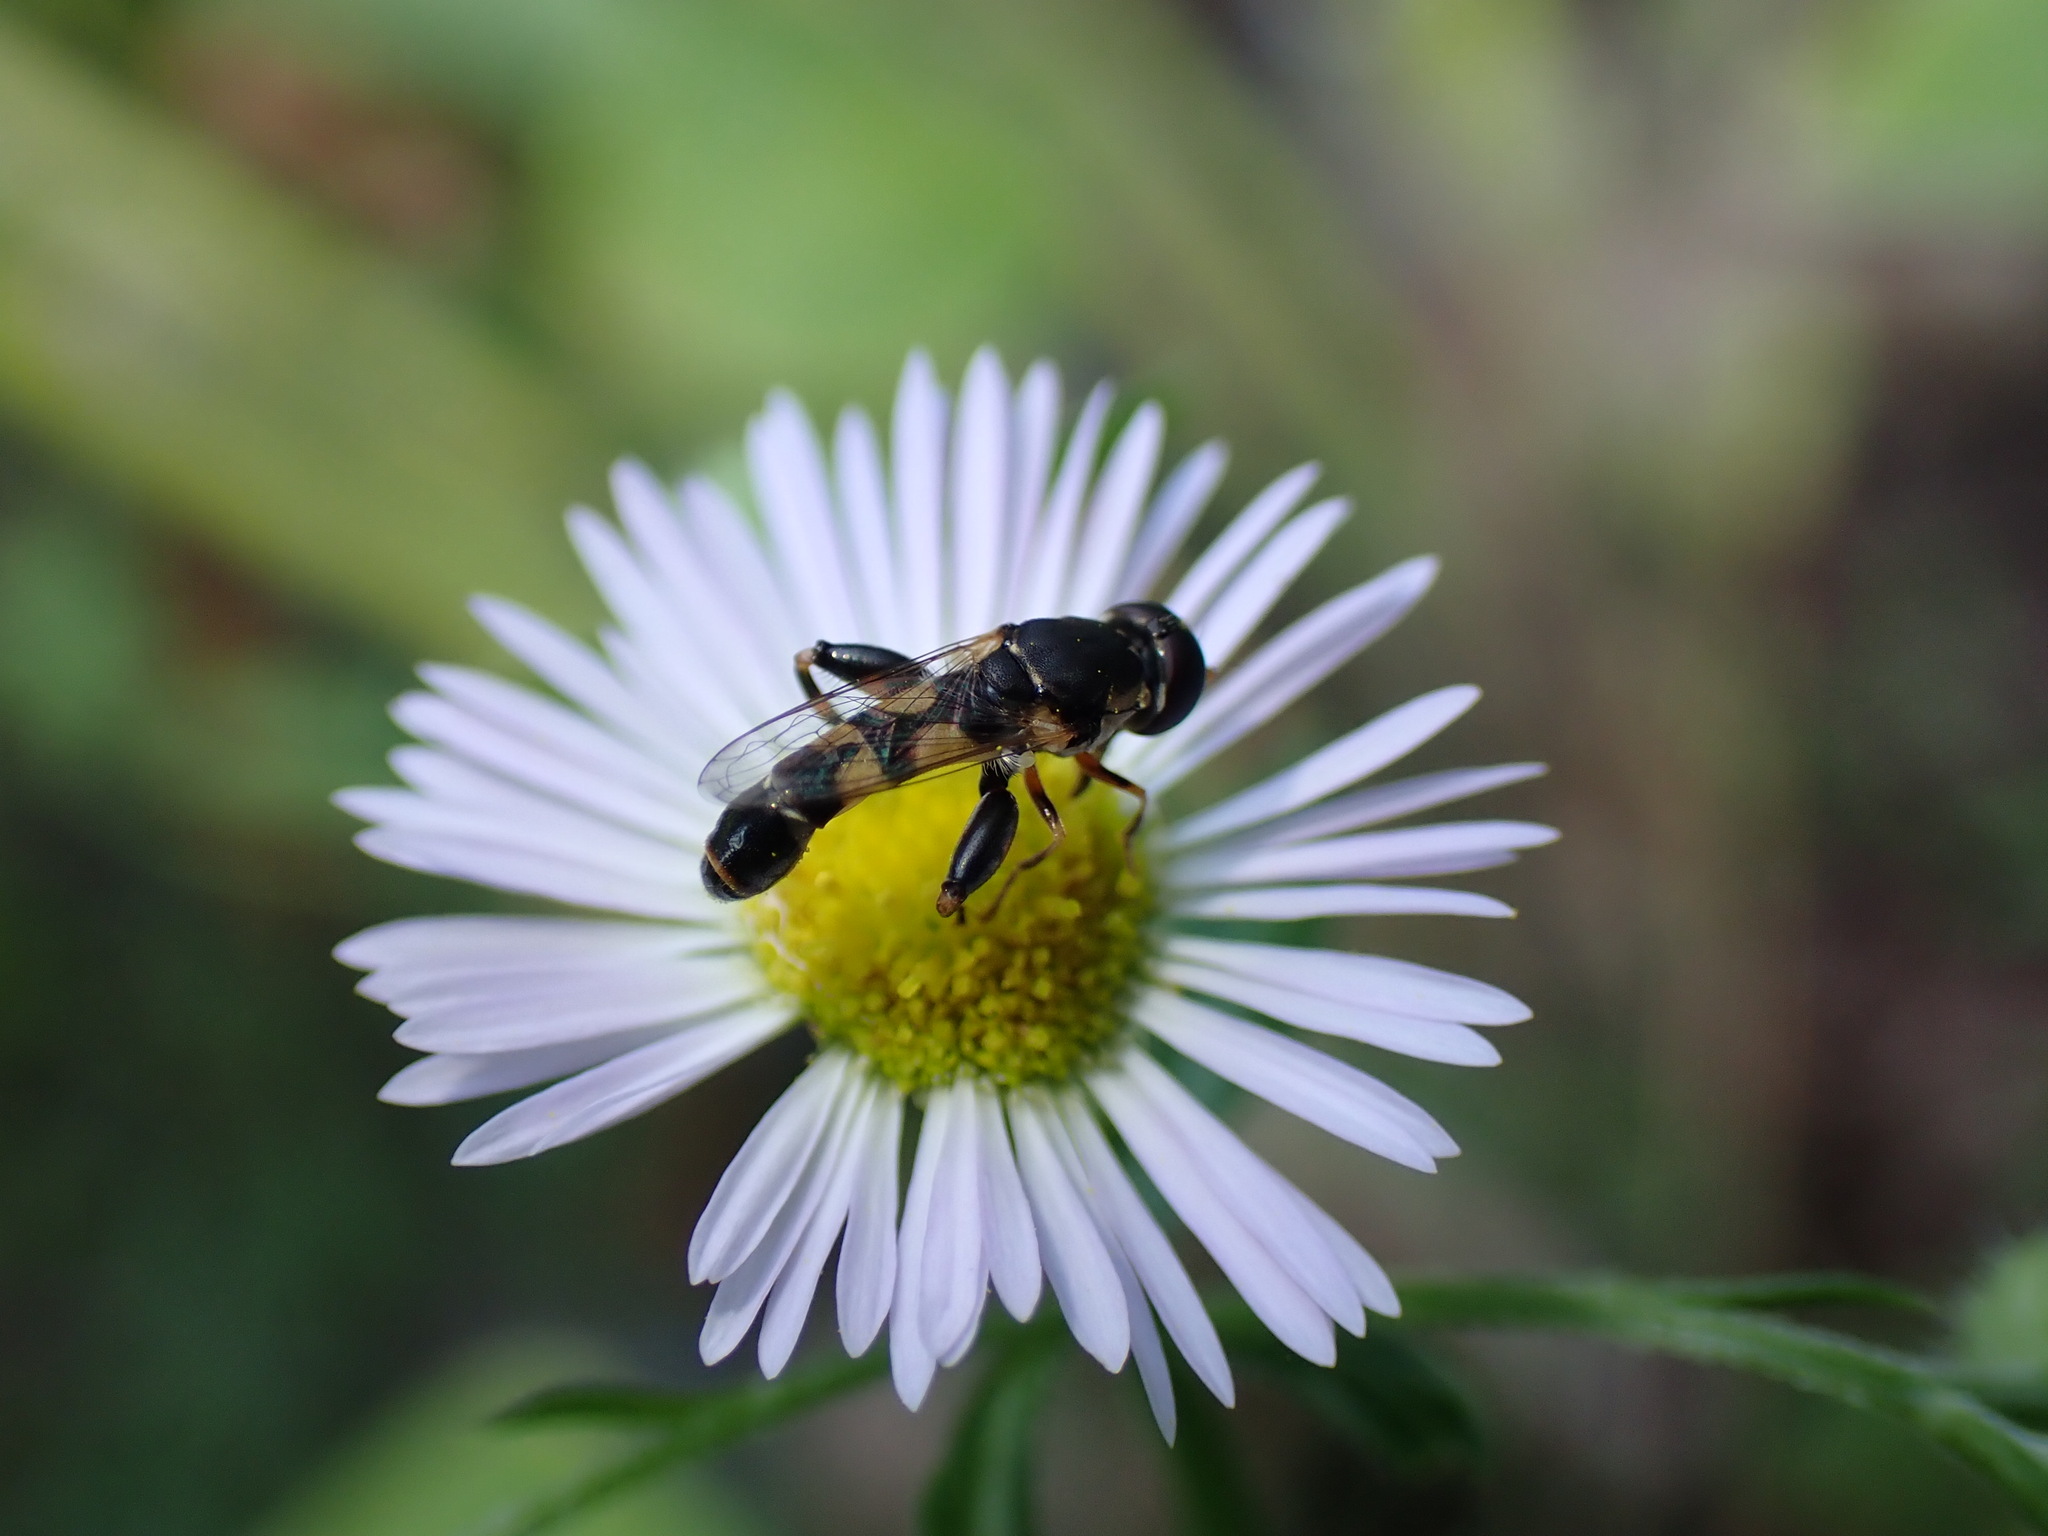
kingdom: Animalia
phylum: Arthropoda
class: Insecta
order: Diptera
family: Syrphidae
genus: Syritta
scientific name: Syritta pipiens
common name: Hover fly
